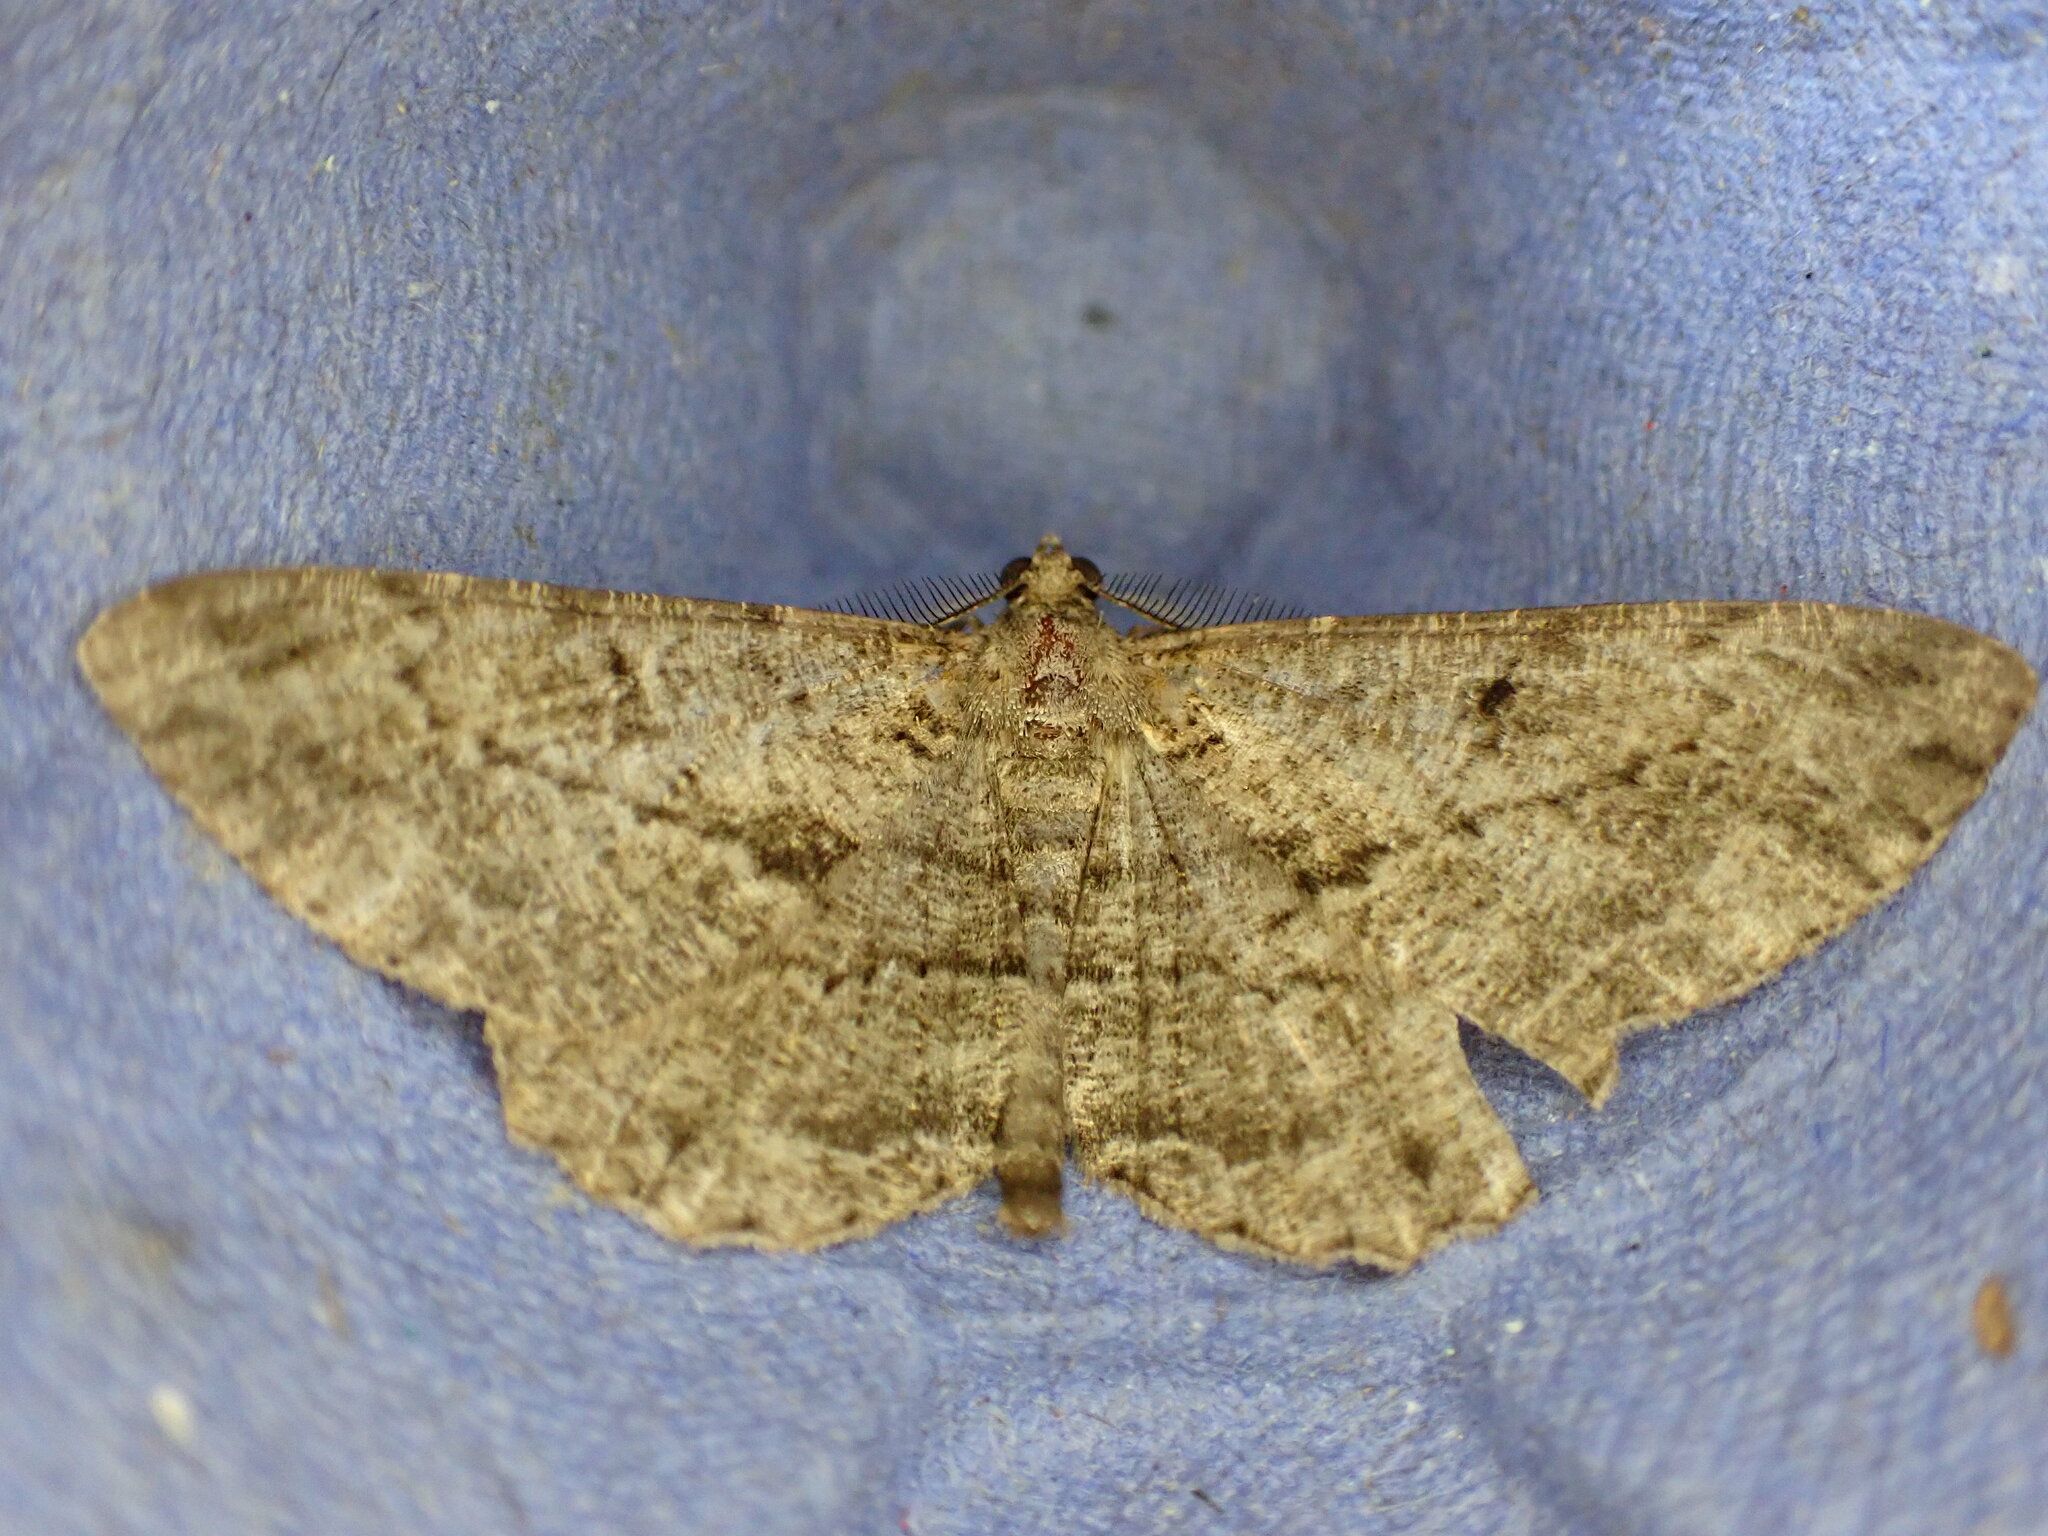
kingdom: Animalia
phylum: Arthropoda
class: Insecta
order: Lepidoptera
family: Geometridae
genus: Peribatodes
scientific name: Peribatodes rhomboidaria
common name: Willow beauty
